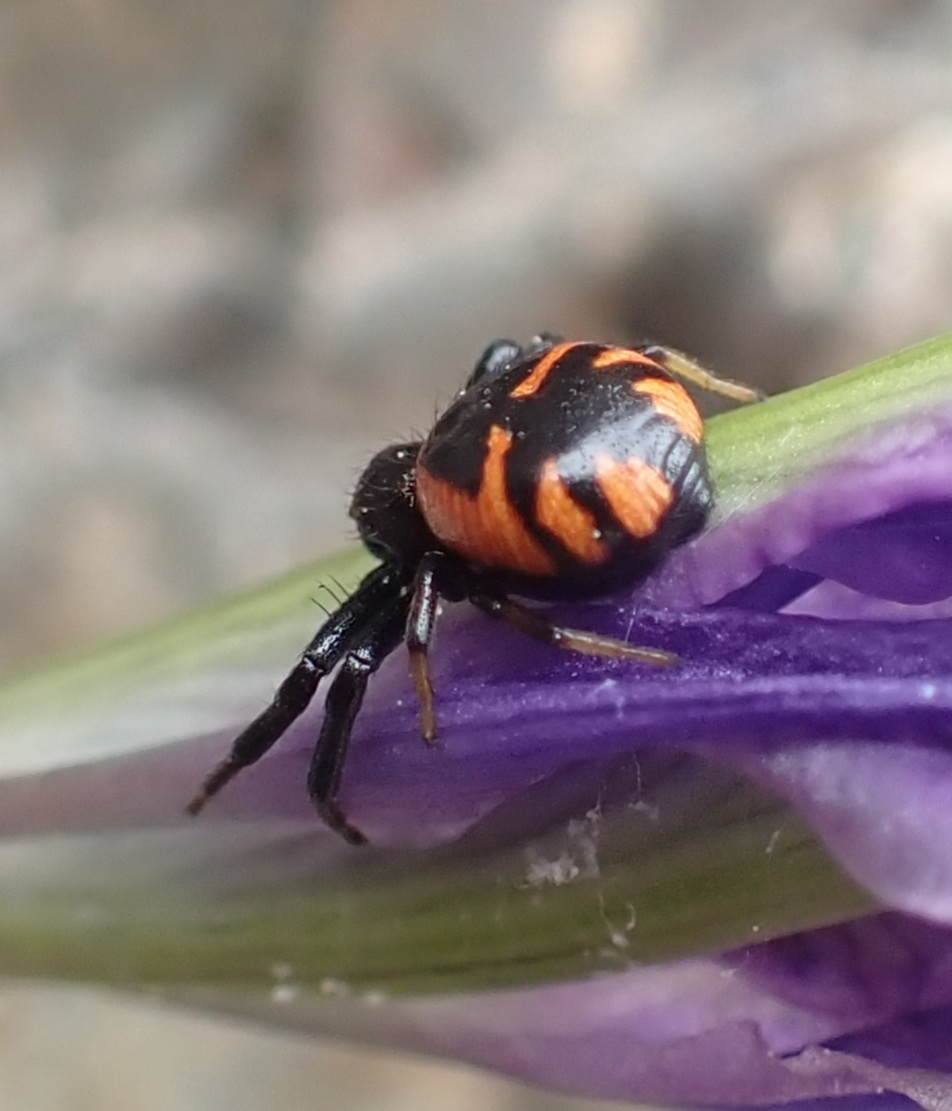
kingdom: Animalia
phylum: Arthropoda
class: Arachnida
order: Araneae
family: Thomisidae
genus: Synema
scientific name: Synema globosum
